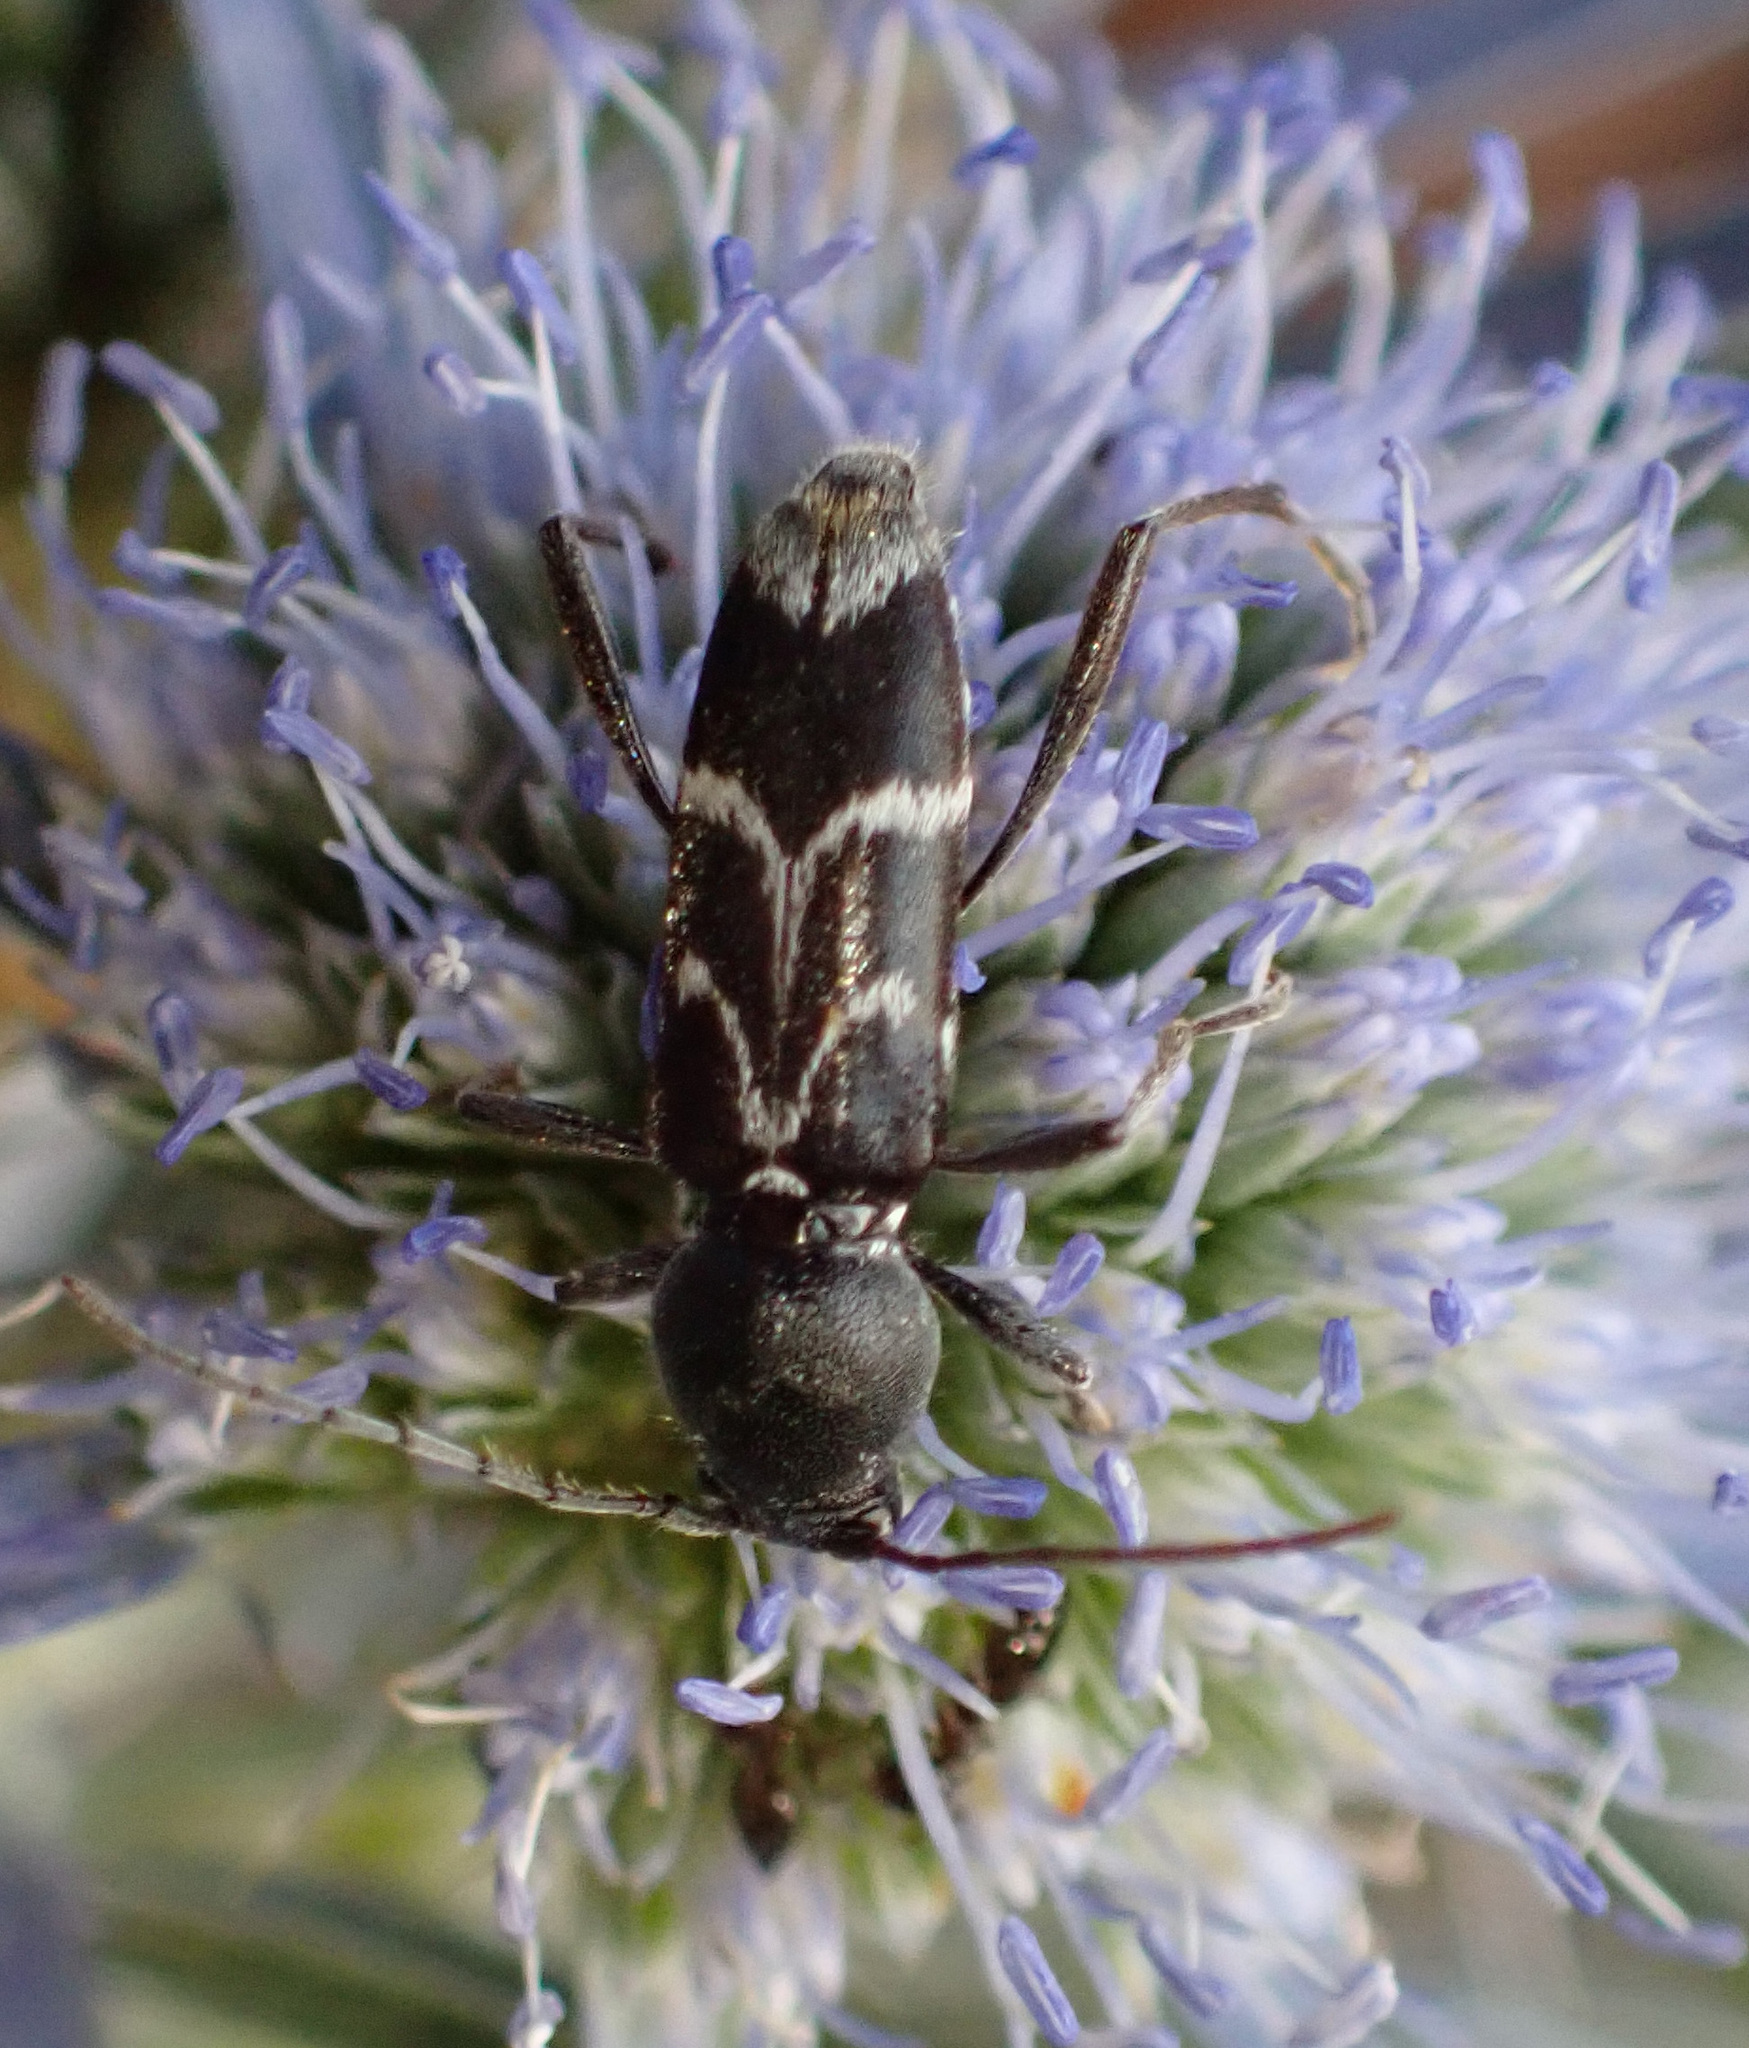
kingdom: Animalia
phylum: Arthropoda
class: Insecta
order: Coleoptera
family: Cerambycidae
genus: Chlorophorus
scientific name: Chlorophorus sartor
